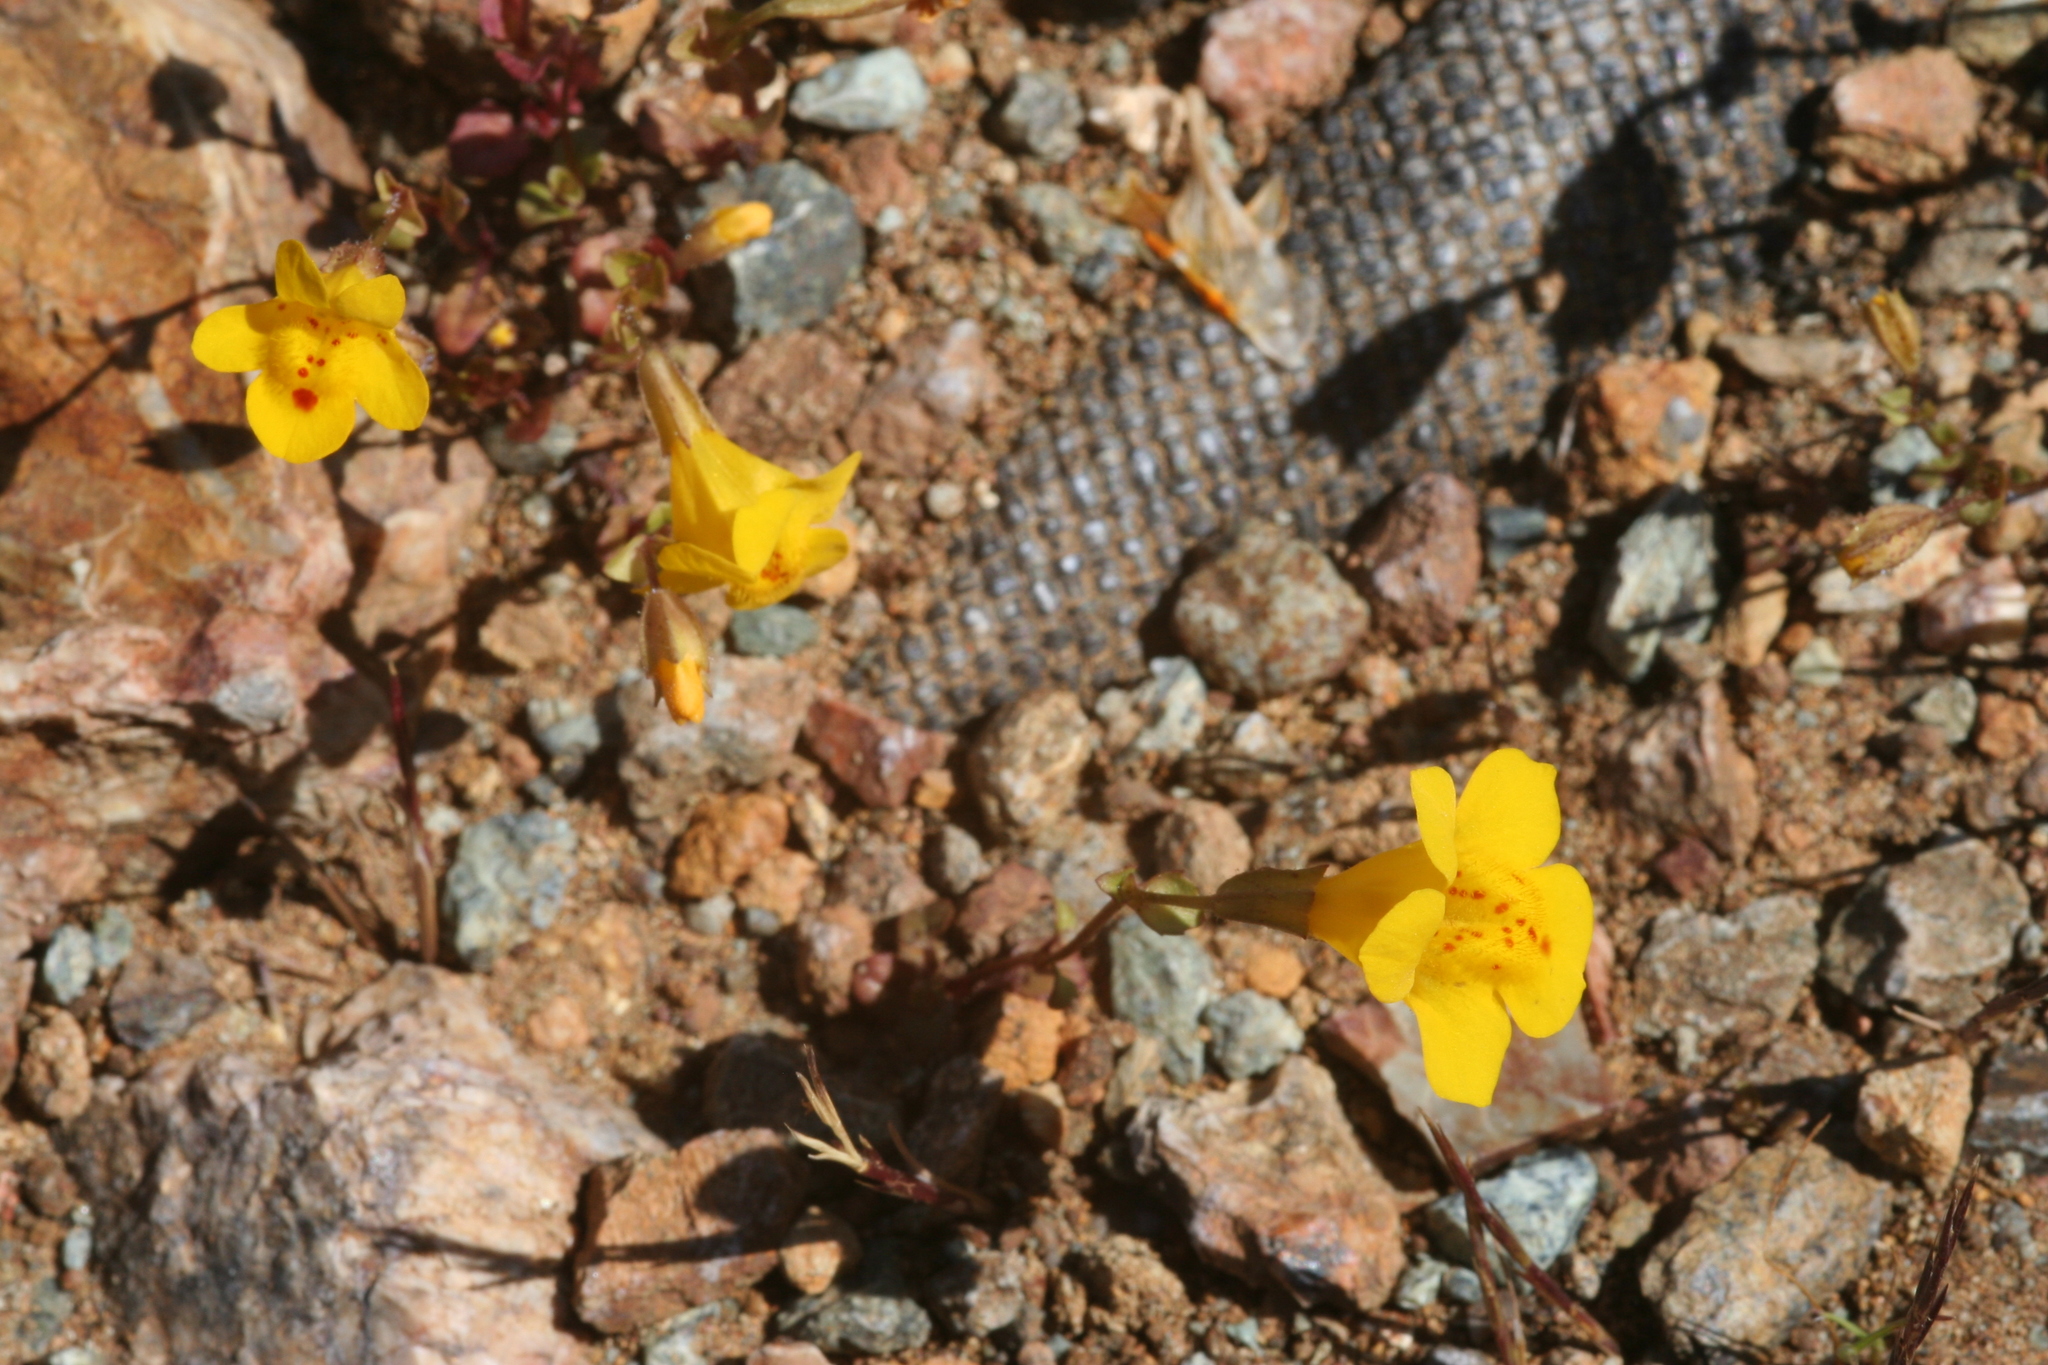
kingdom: Plantae
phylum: Tracheophyta
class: Magnoliopsida
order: Lamiales
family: Phrymaceae
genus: Erythranthe
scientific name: Erythranthe microphylla
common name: Bentham's monkeyflower
